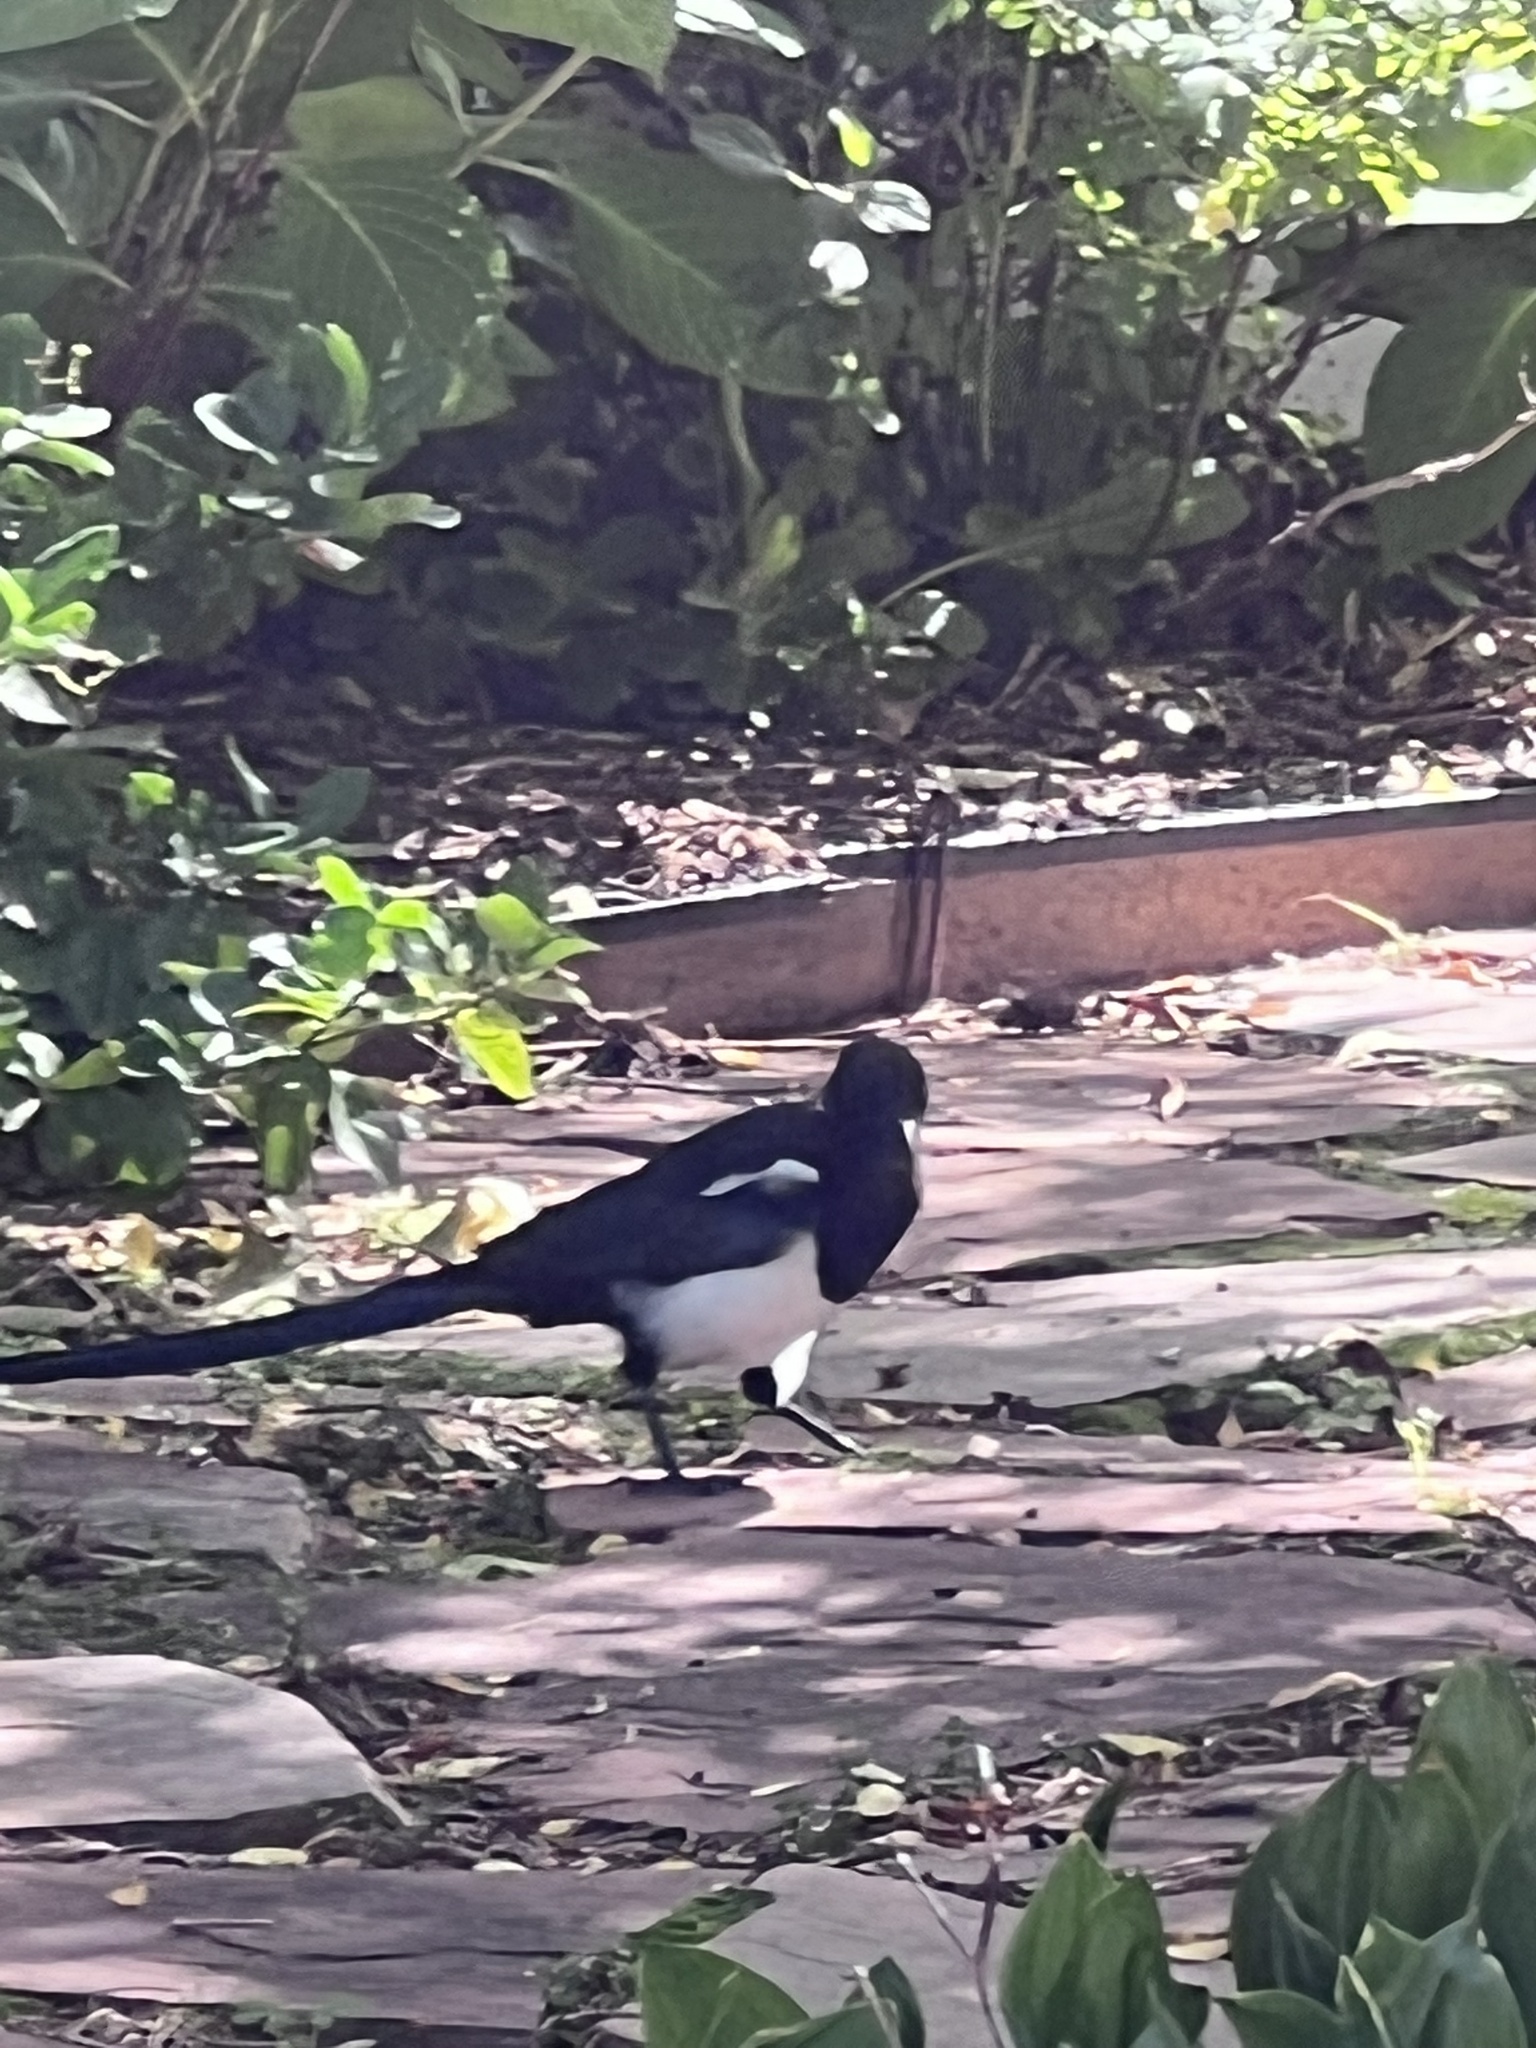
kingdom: Animalia
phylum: Chordata
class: Aves
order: Passeriformes
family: Corvidae
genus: Pica
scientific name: Pica hudsonia
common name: Black-billed magpie
